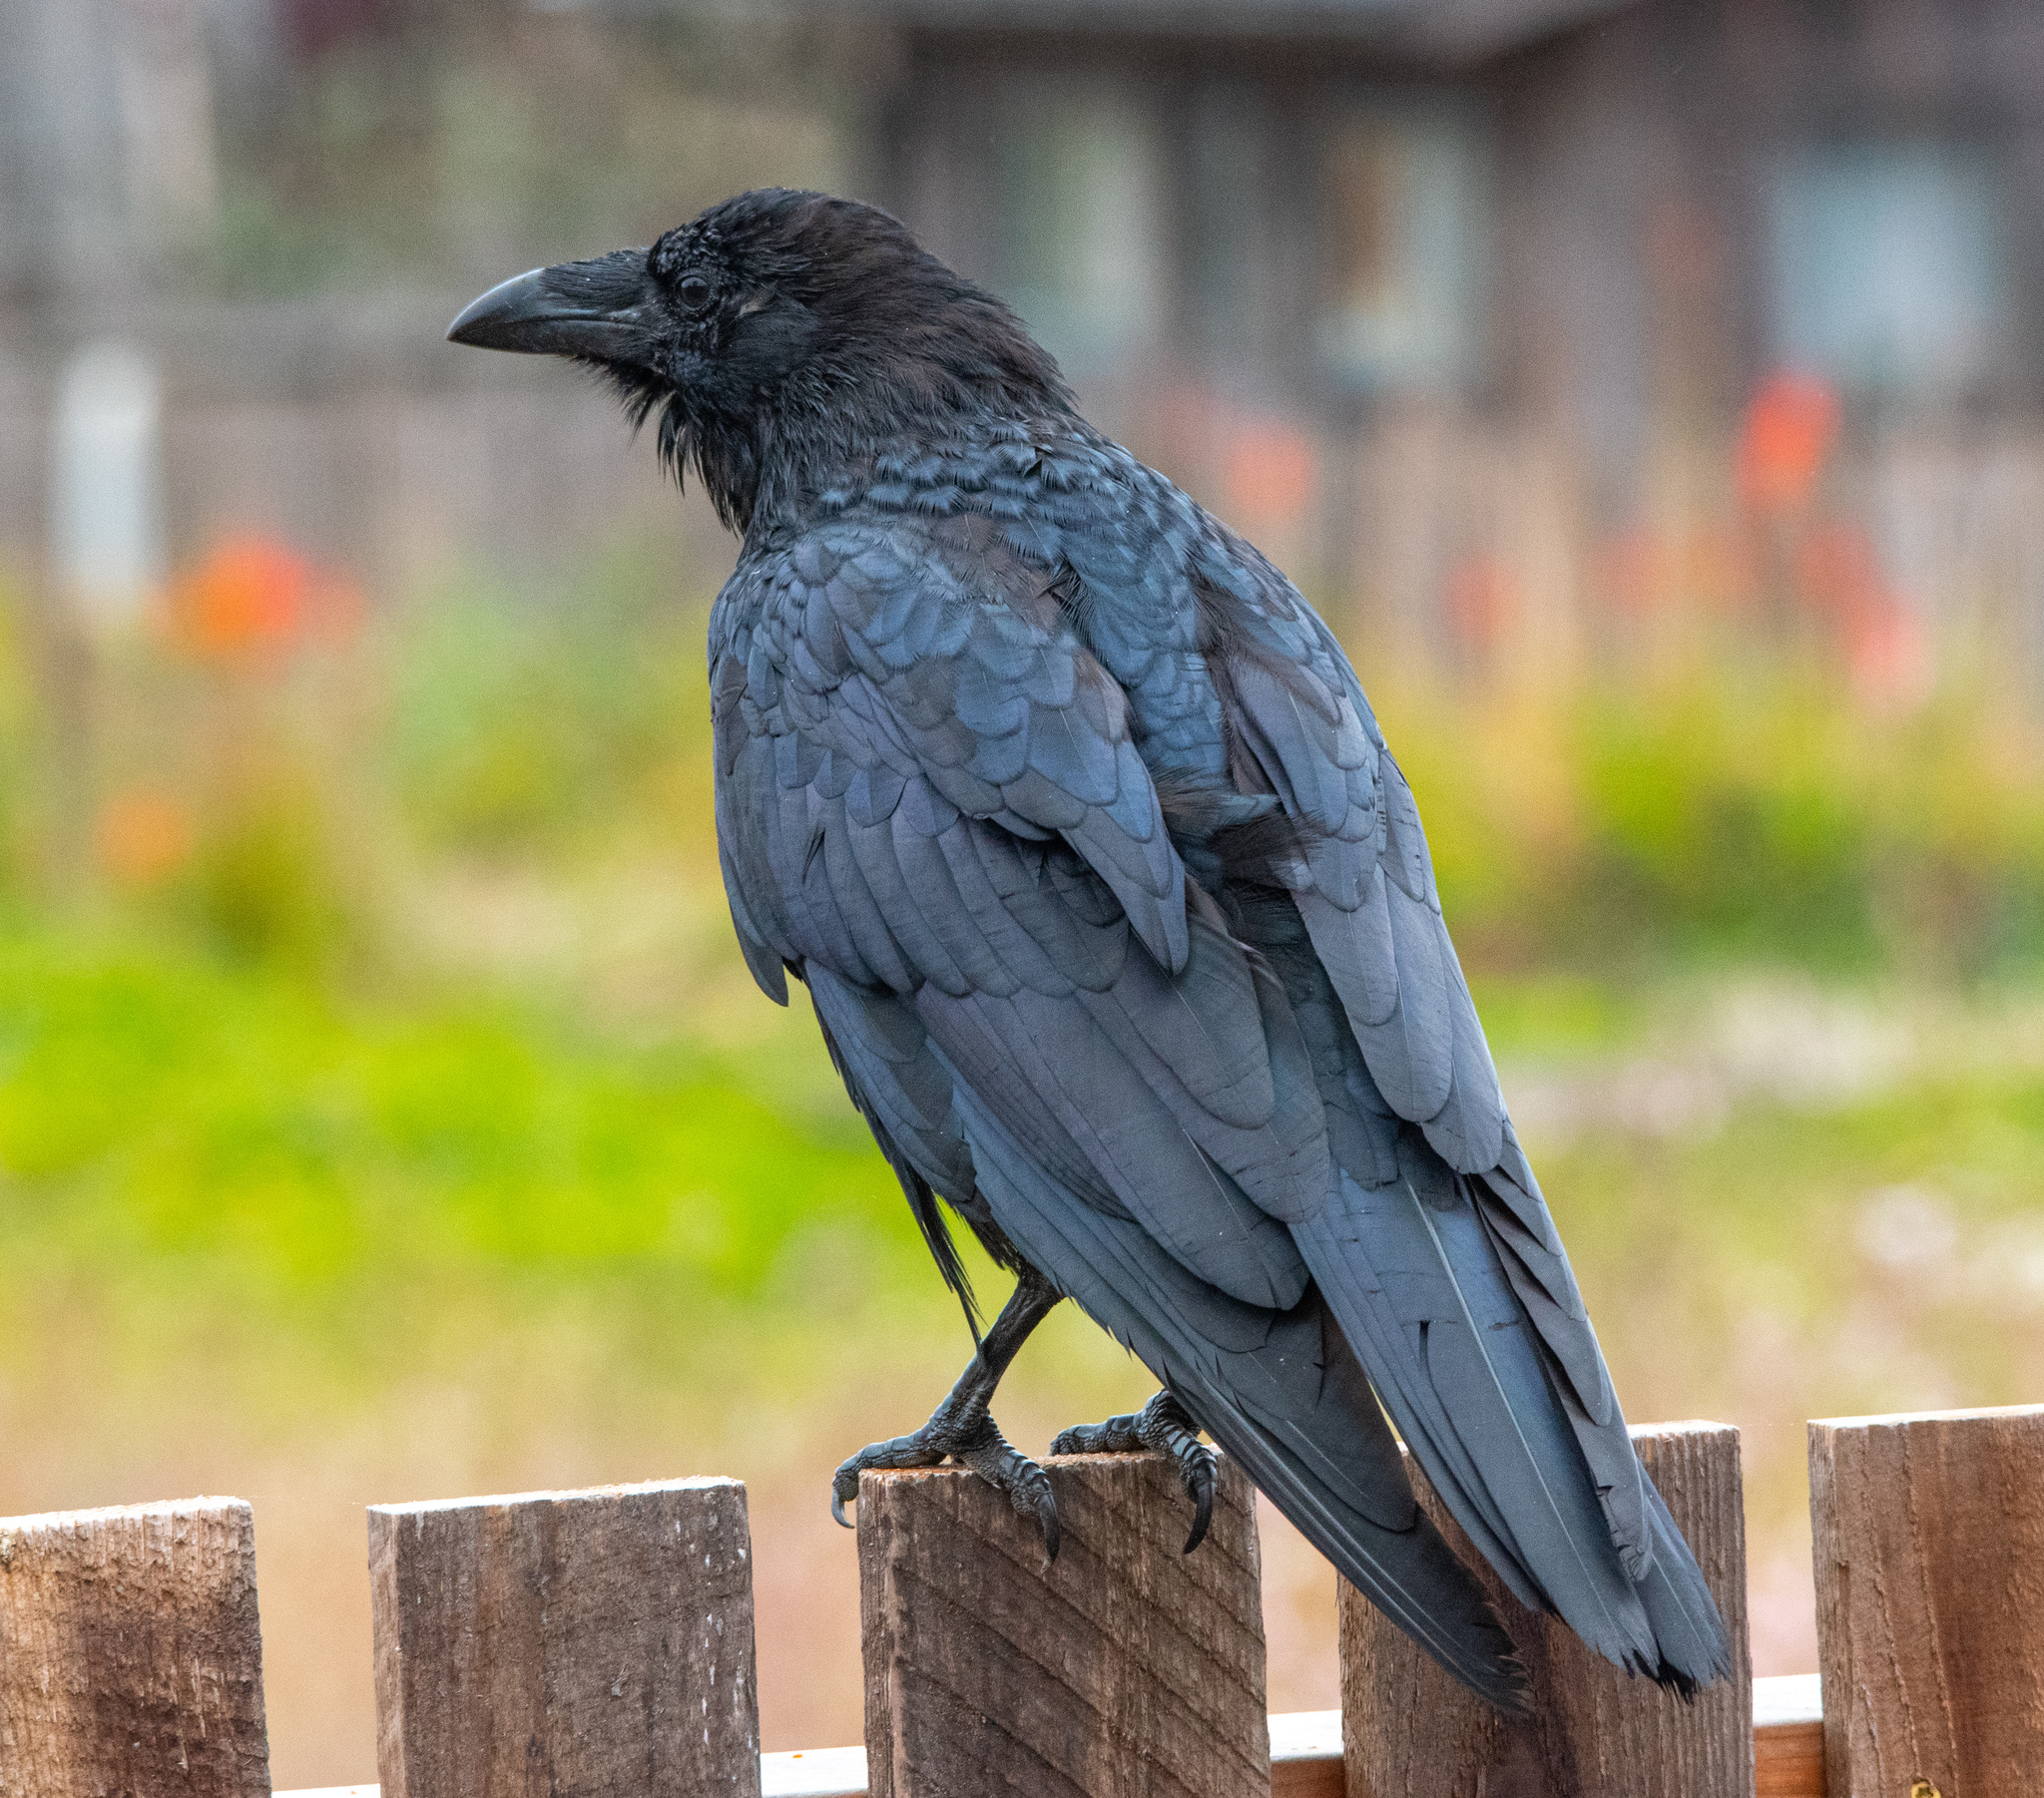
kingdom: Animalia
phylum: Chordata
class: Aves
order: Passeriformes
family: Corvidae
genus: Corvus
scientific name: Corvus corax
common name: Common raven
